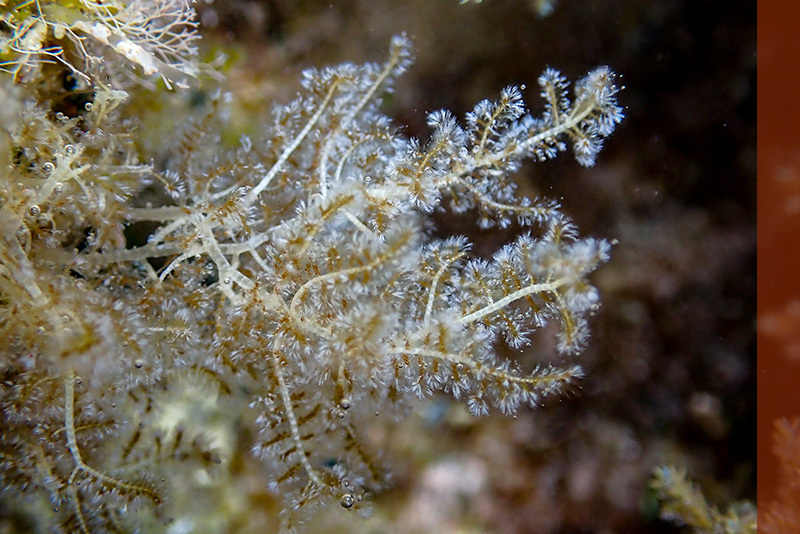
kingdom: Plantae
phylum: Rhodophyta
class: Florideophyceae
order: Ceramiales
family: Wrangeliaceae
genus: Wrangelia
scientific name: Wrangelia penicillata
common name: Pink bush algae
